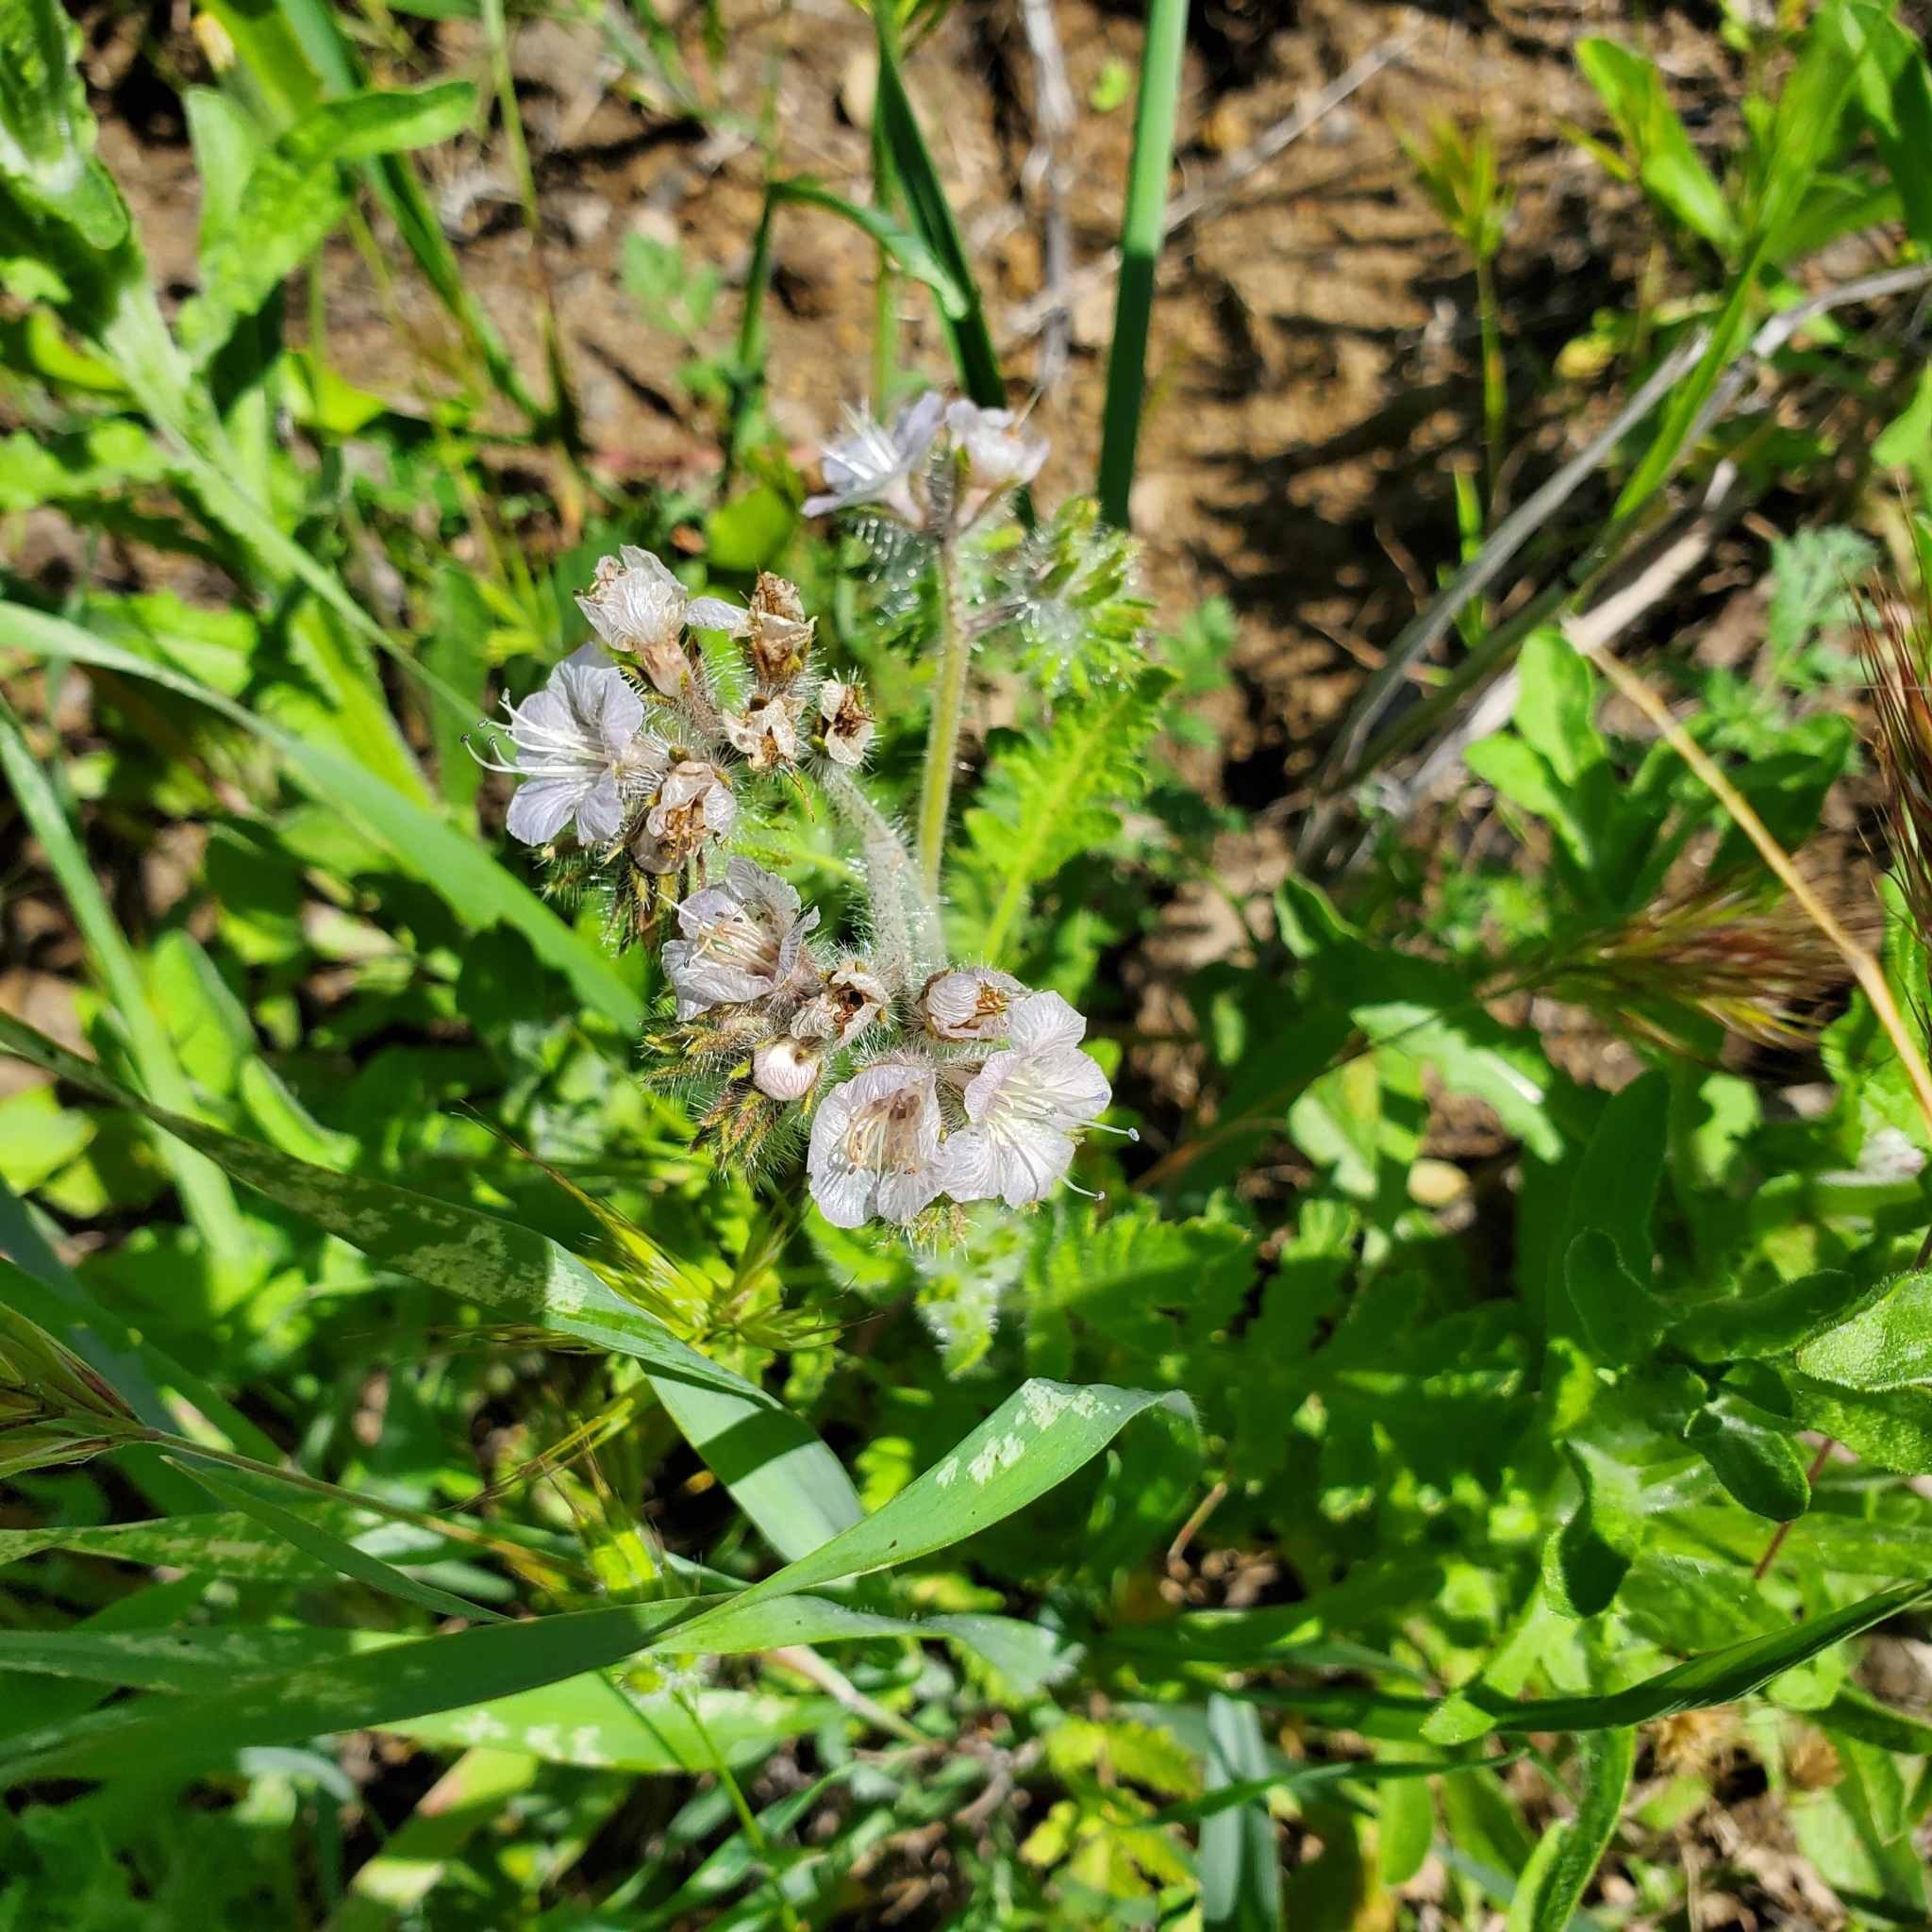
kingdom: Plantae
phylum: Tracheophyta
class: Magnoliopsida
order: Boraginales
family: Hydrophyllaceae
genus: Phacelia
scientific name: Phacelia cicutaria
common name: Caterpillar phacelia
